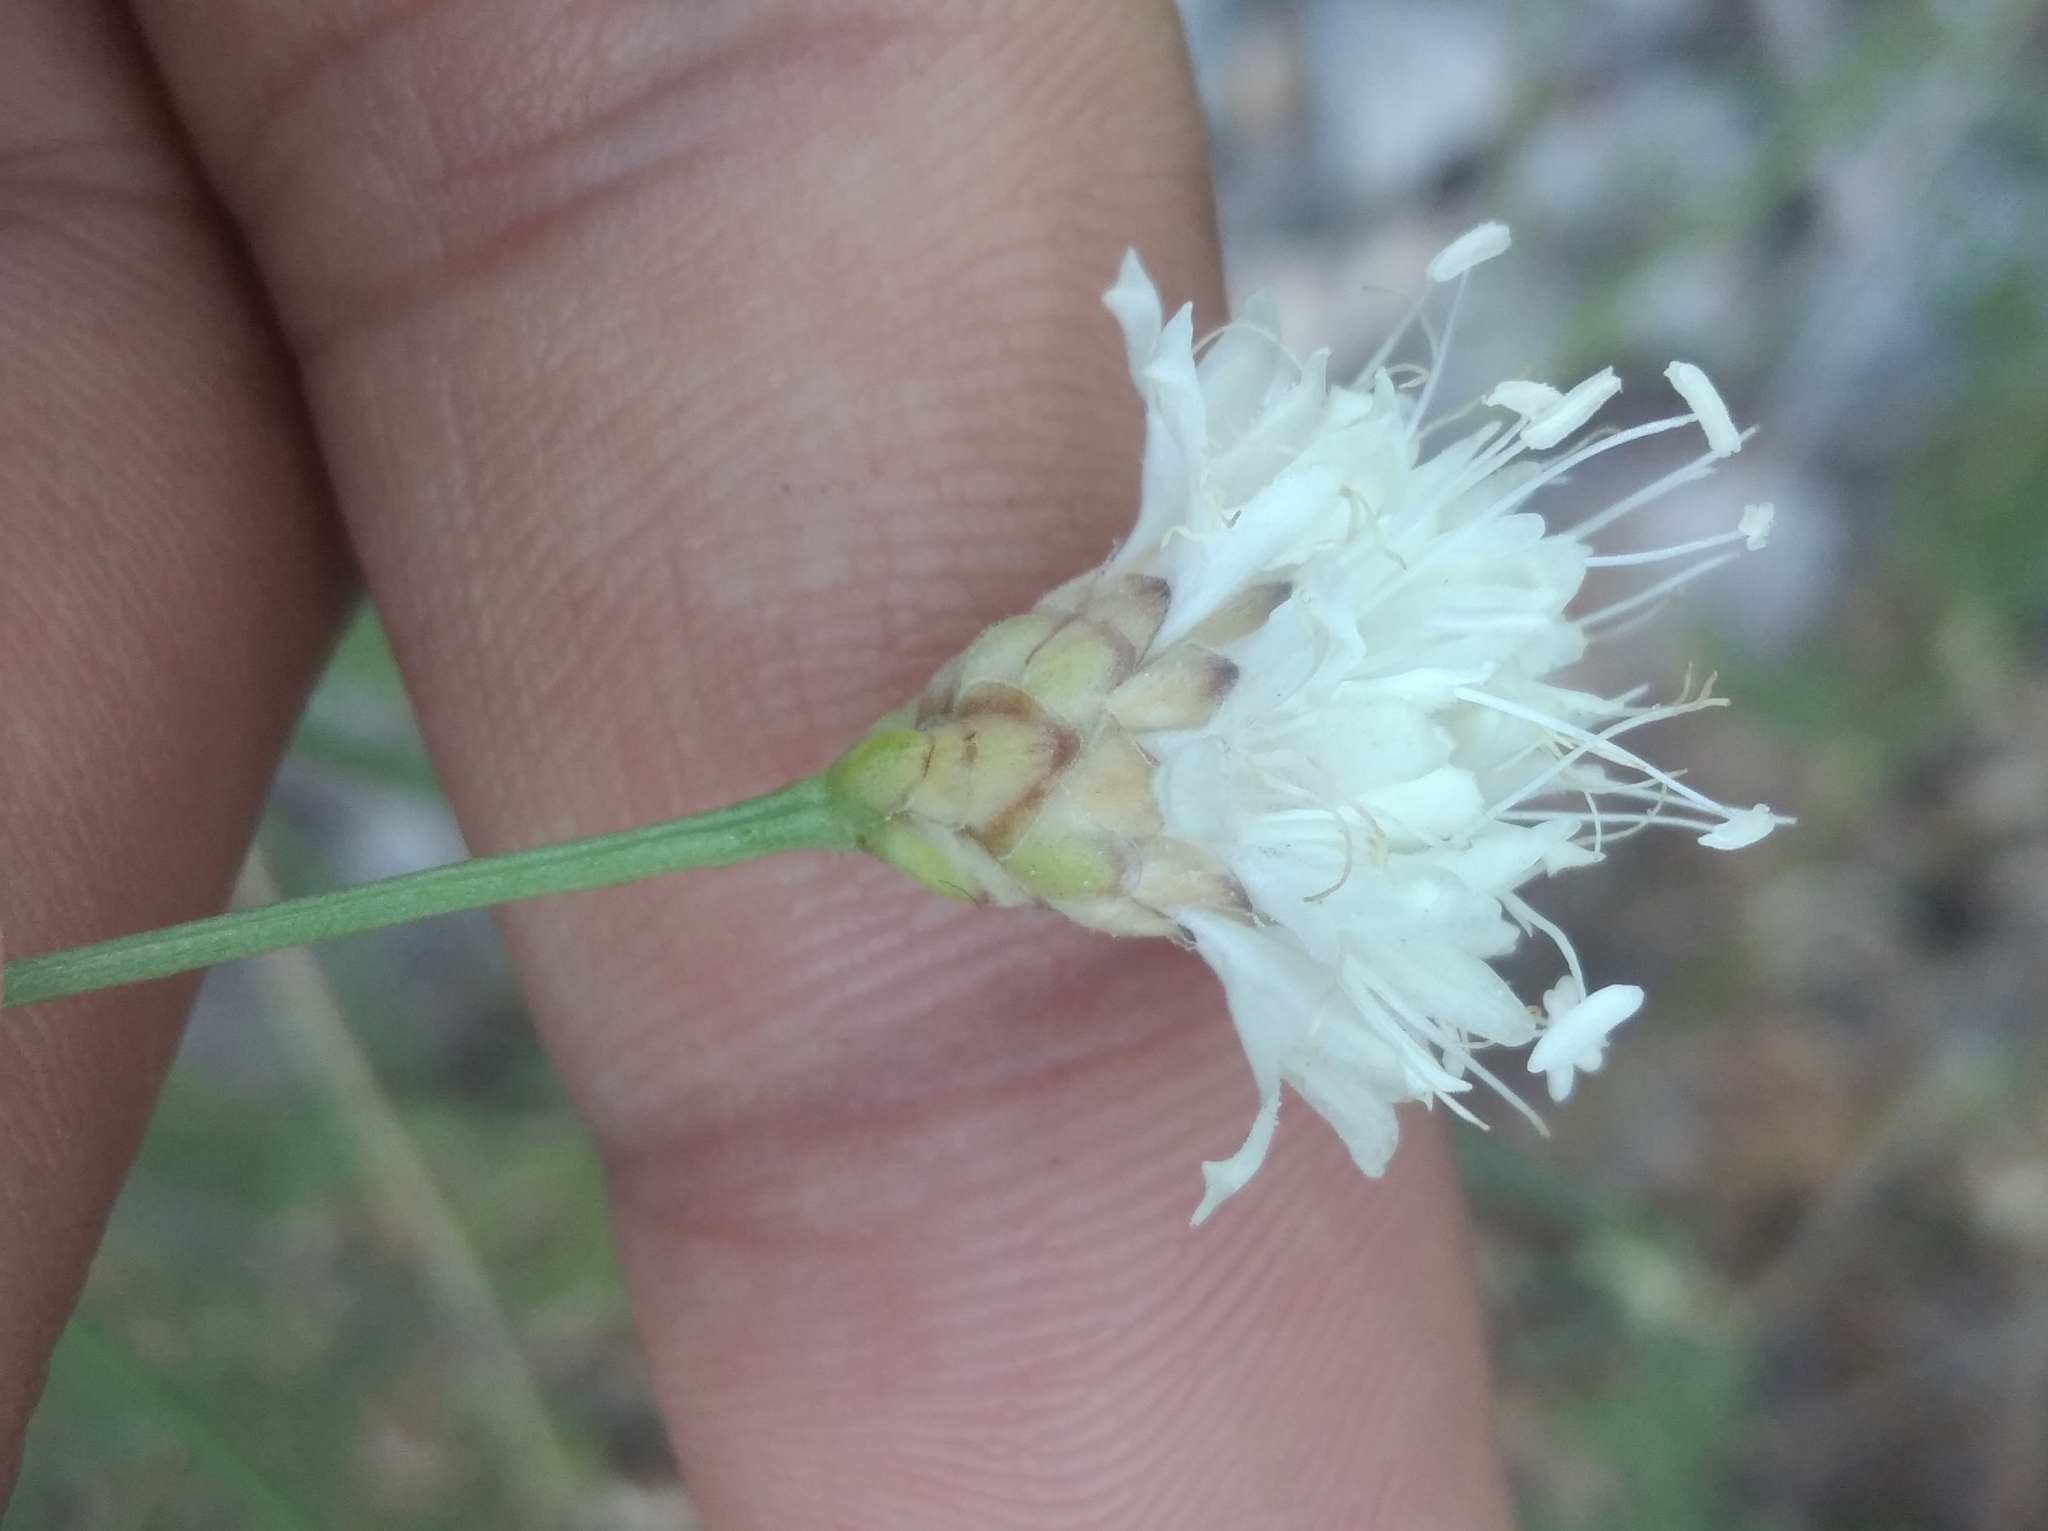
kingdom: Plantae
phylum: Tracheophyta
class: Magnoliopsida
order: Dipsacales
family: Caprifoliaceae
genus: Cephalaria
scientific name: Cephalaria leucantha
